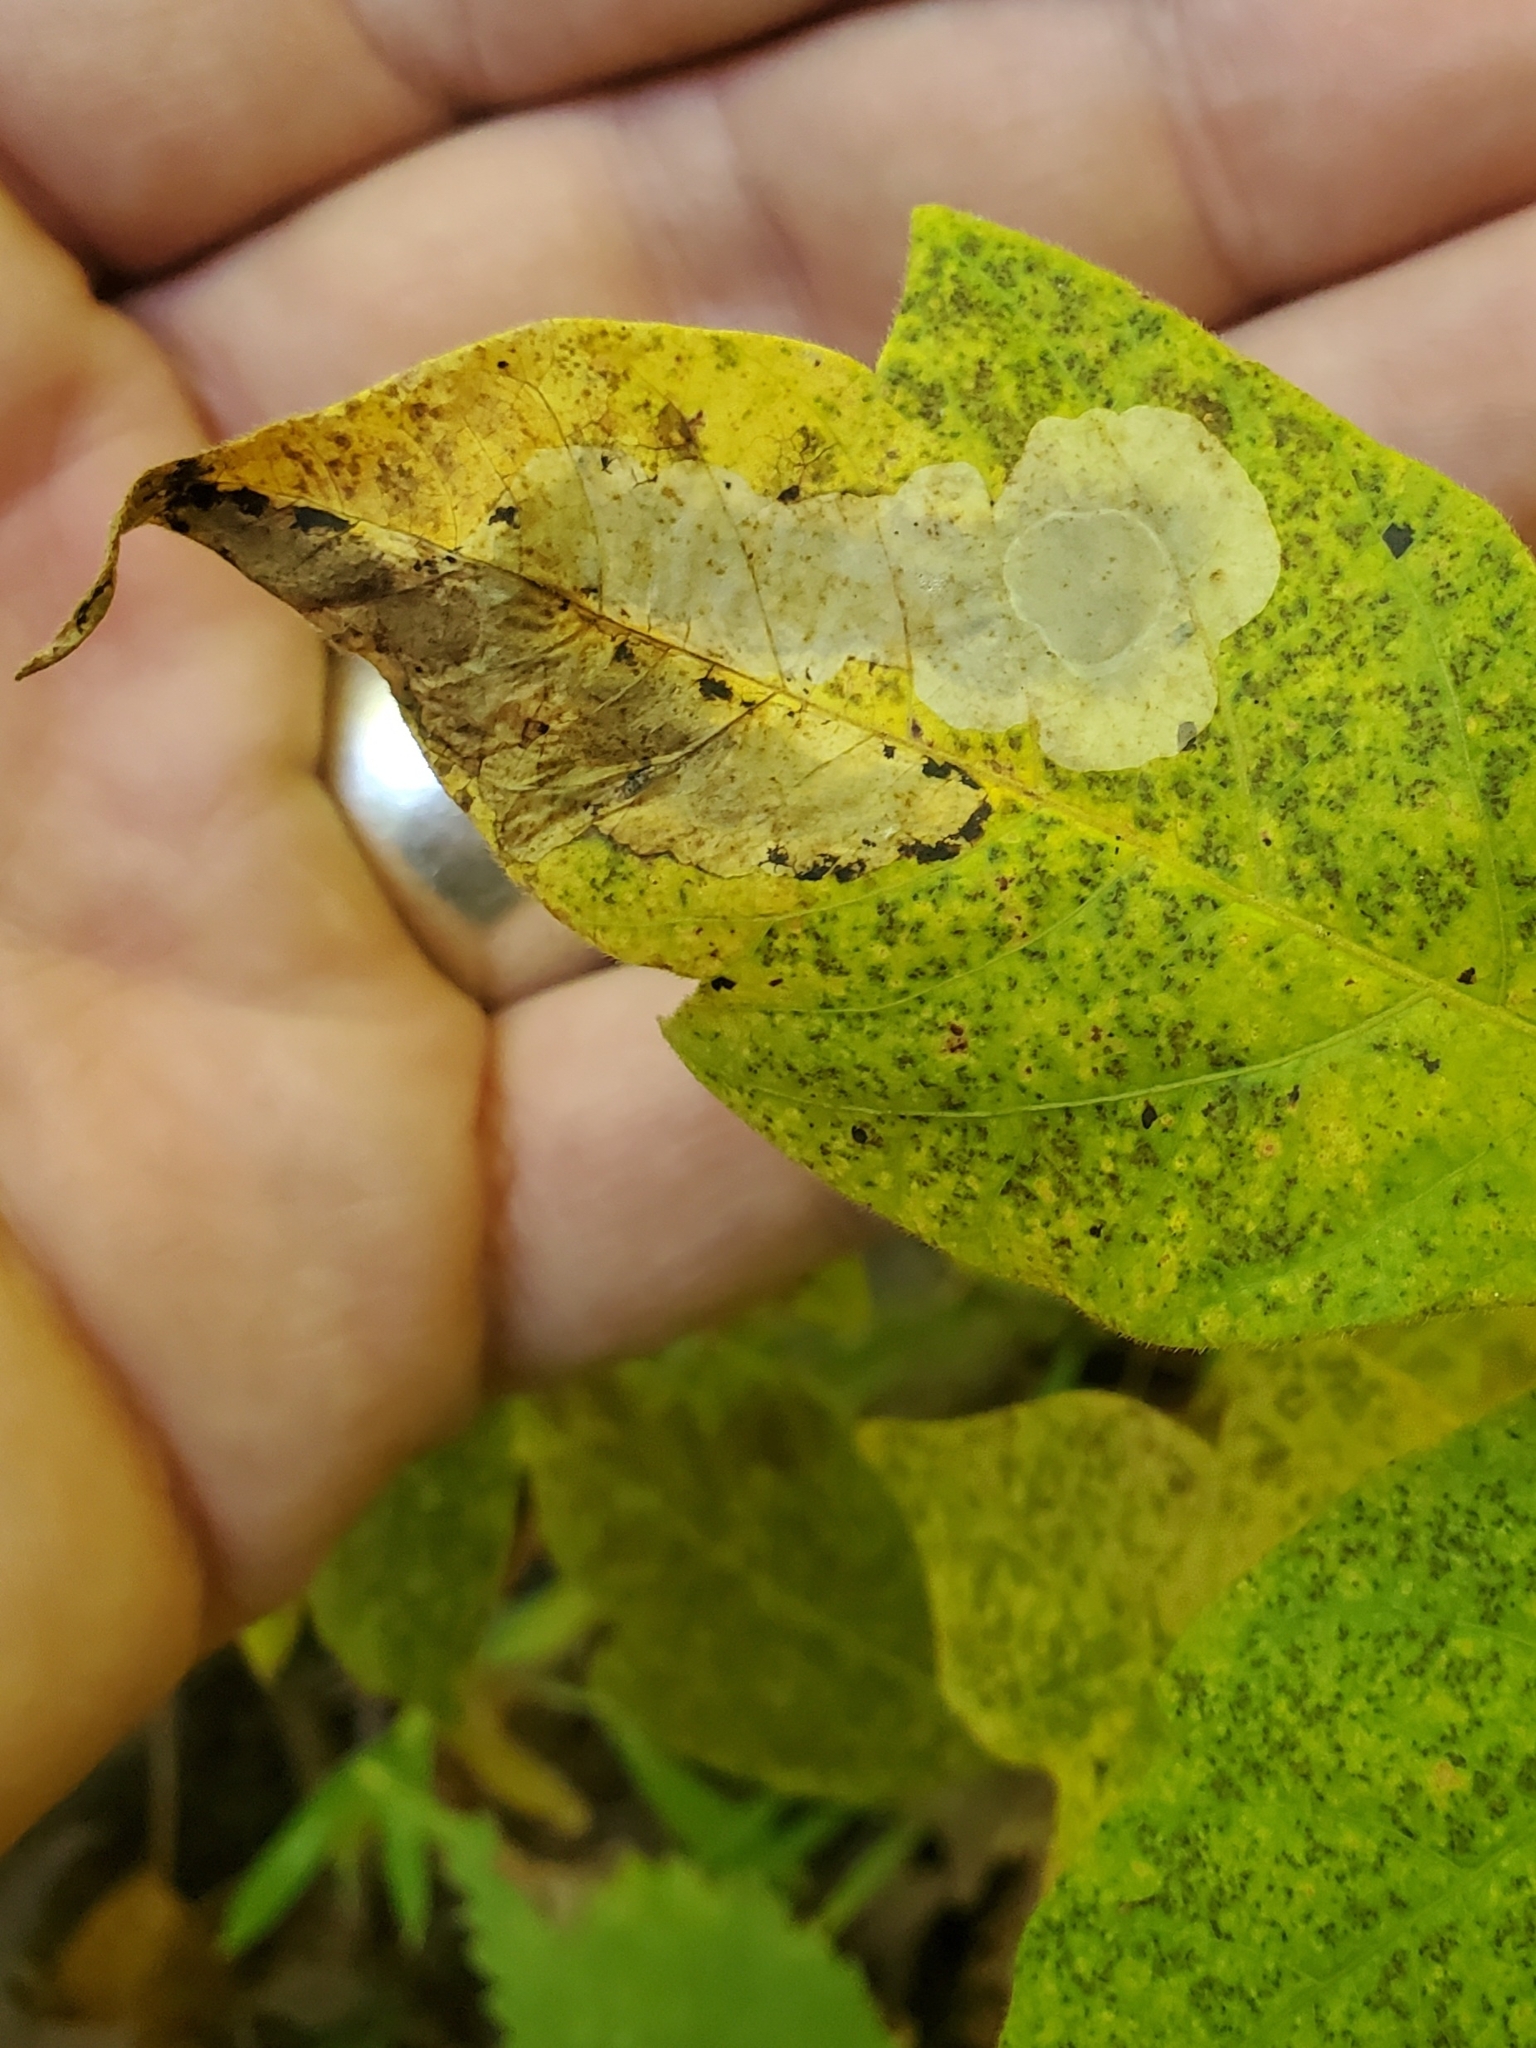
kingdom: Animalia
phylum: Arthropoda
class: Insecta
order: Lepidoptera
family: Gracillariidae
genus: Cameraria
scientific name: Cameraria guttifinitella
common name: Poison ivy leaf-miner moth
